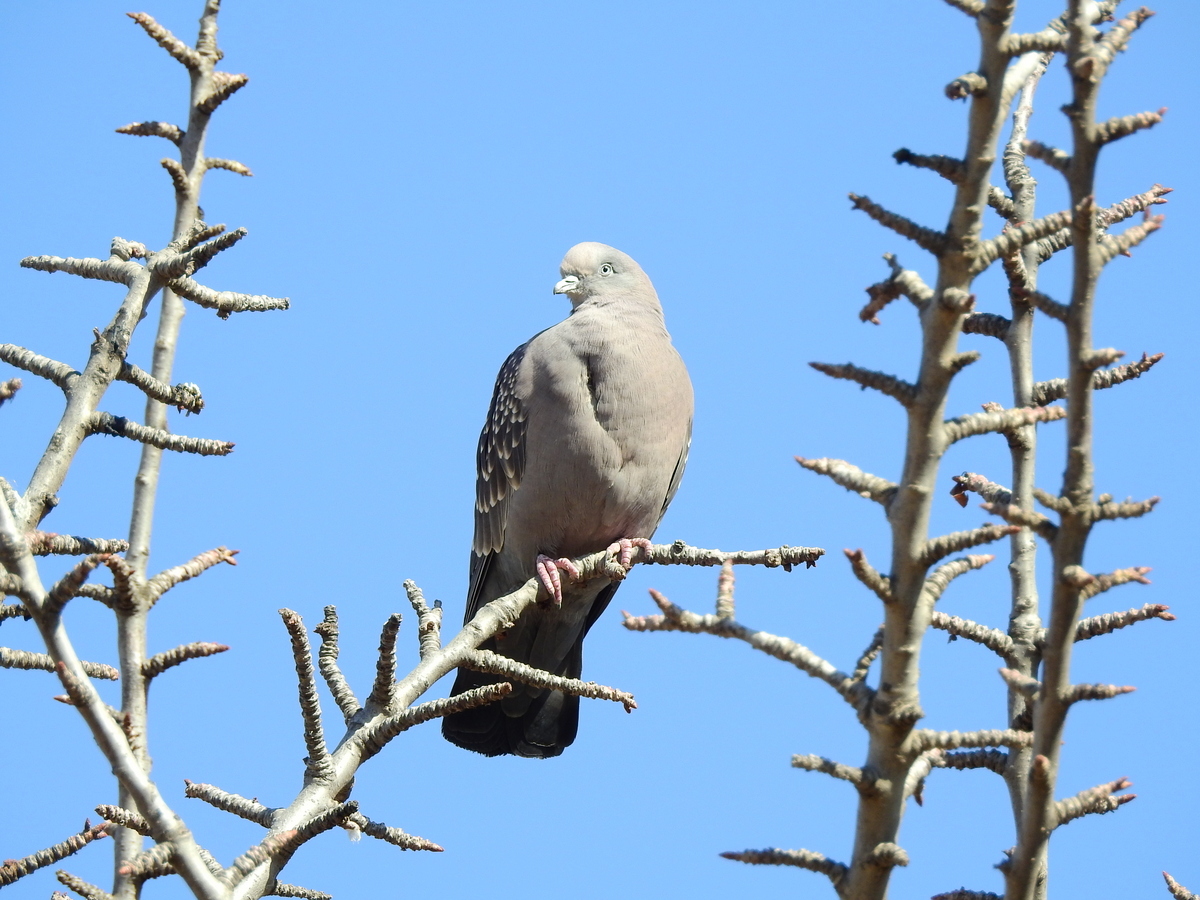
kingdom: Animalia
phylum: Chordata
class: Aves
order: Columbiformes
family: Columbidae
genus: Patagioenas
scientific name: Patagioenas maculosa
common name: Spot-winged pigeon
